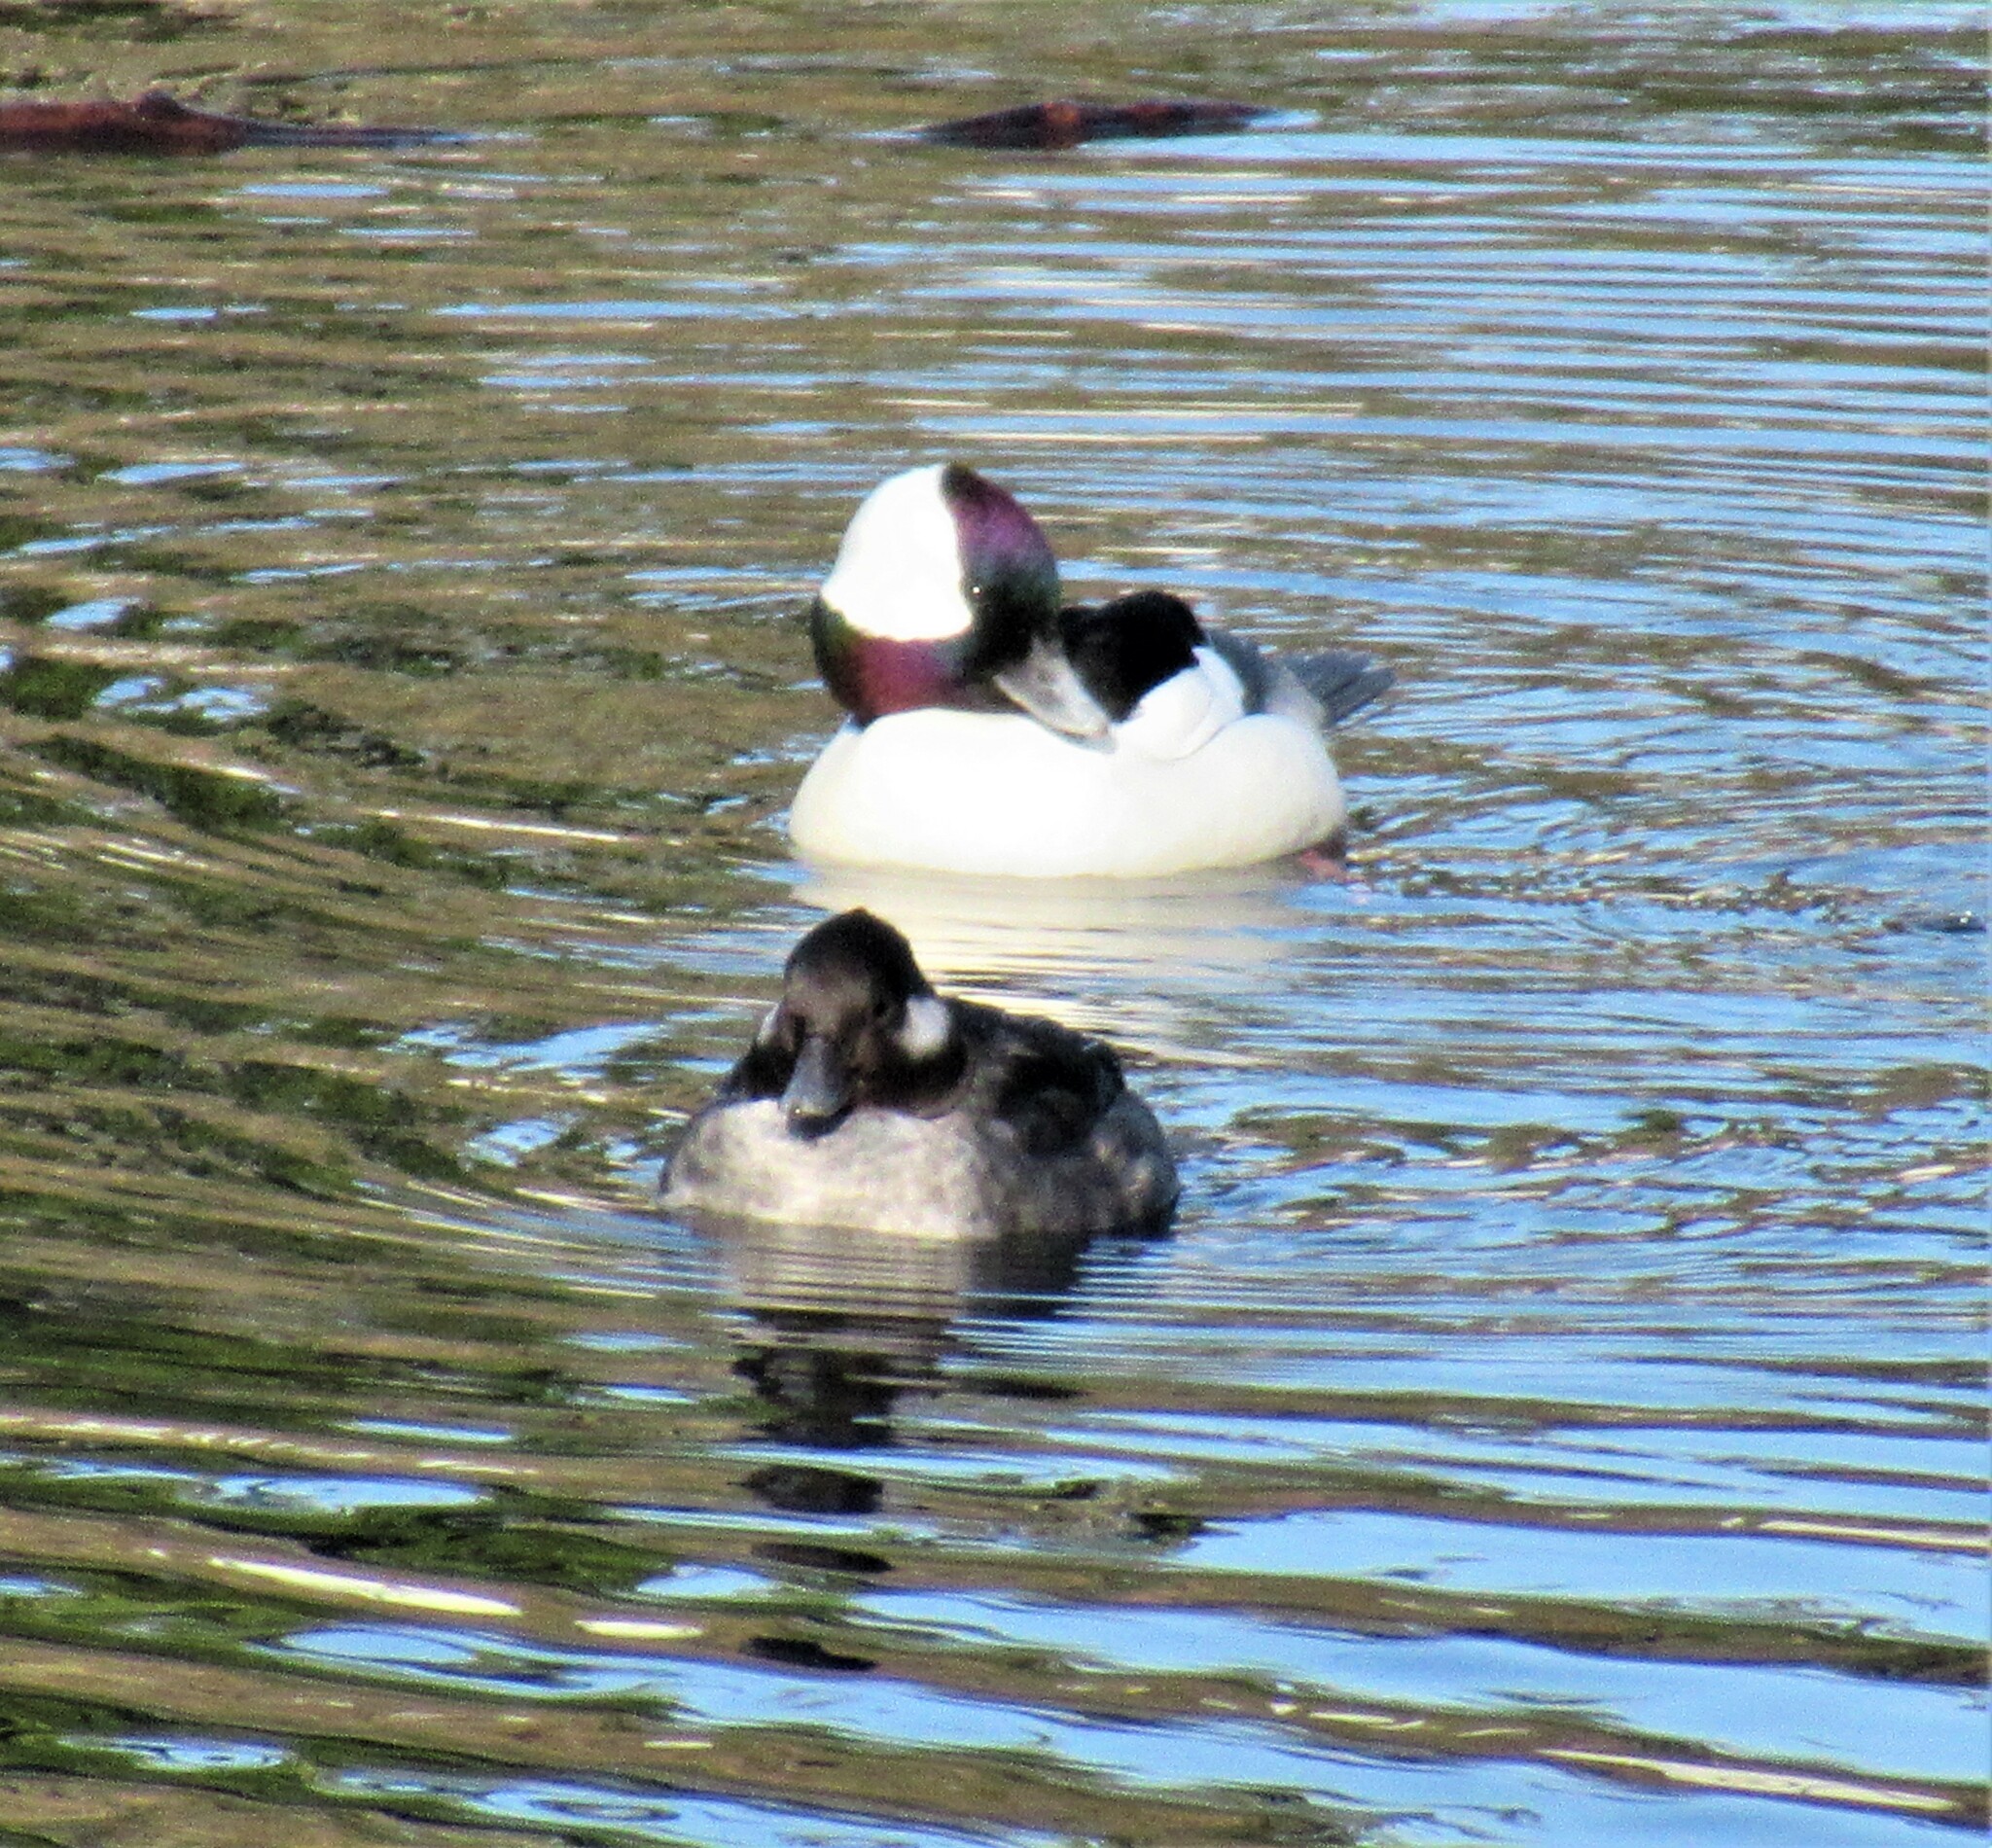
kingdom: Animalia
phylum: Chordata
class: Aves
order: Anseriformes
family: Anatidae
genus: Bucephala
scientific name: Bucephala albeola
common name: Bufflehead
